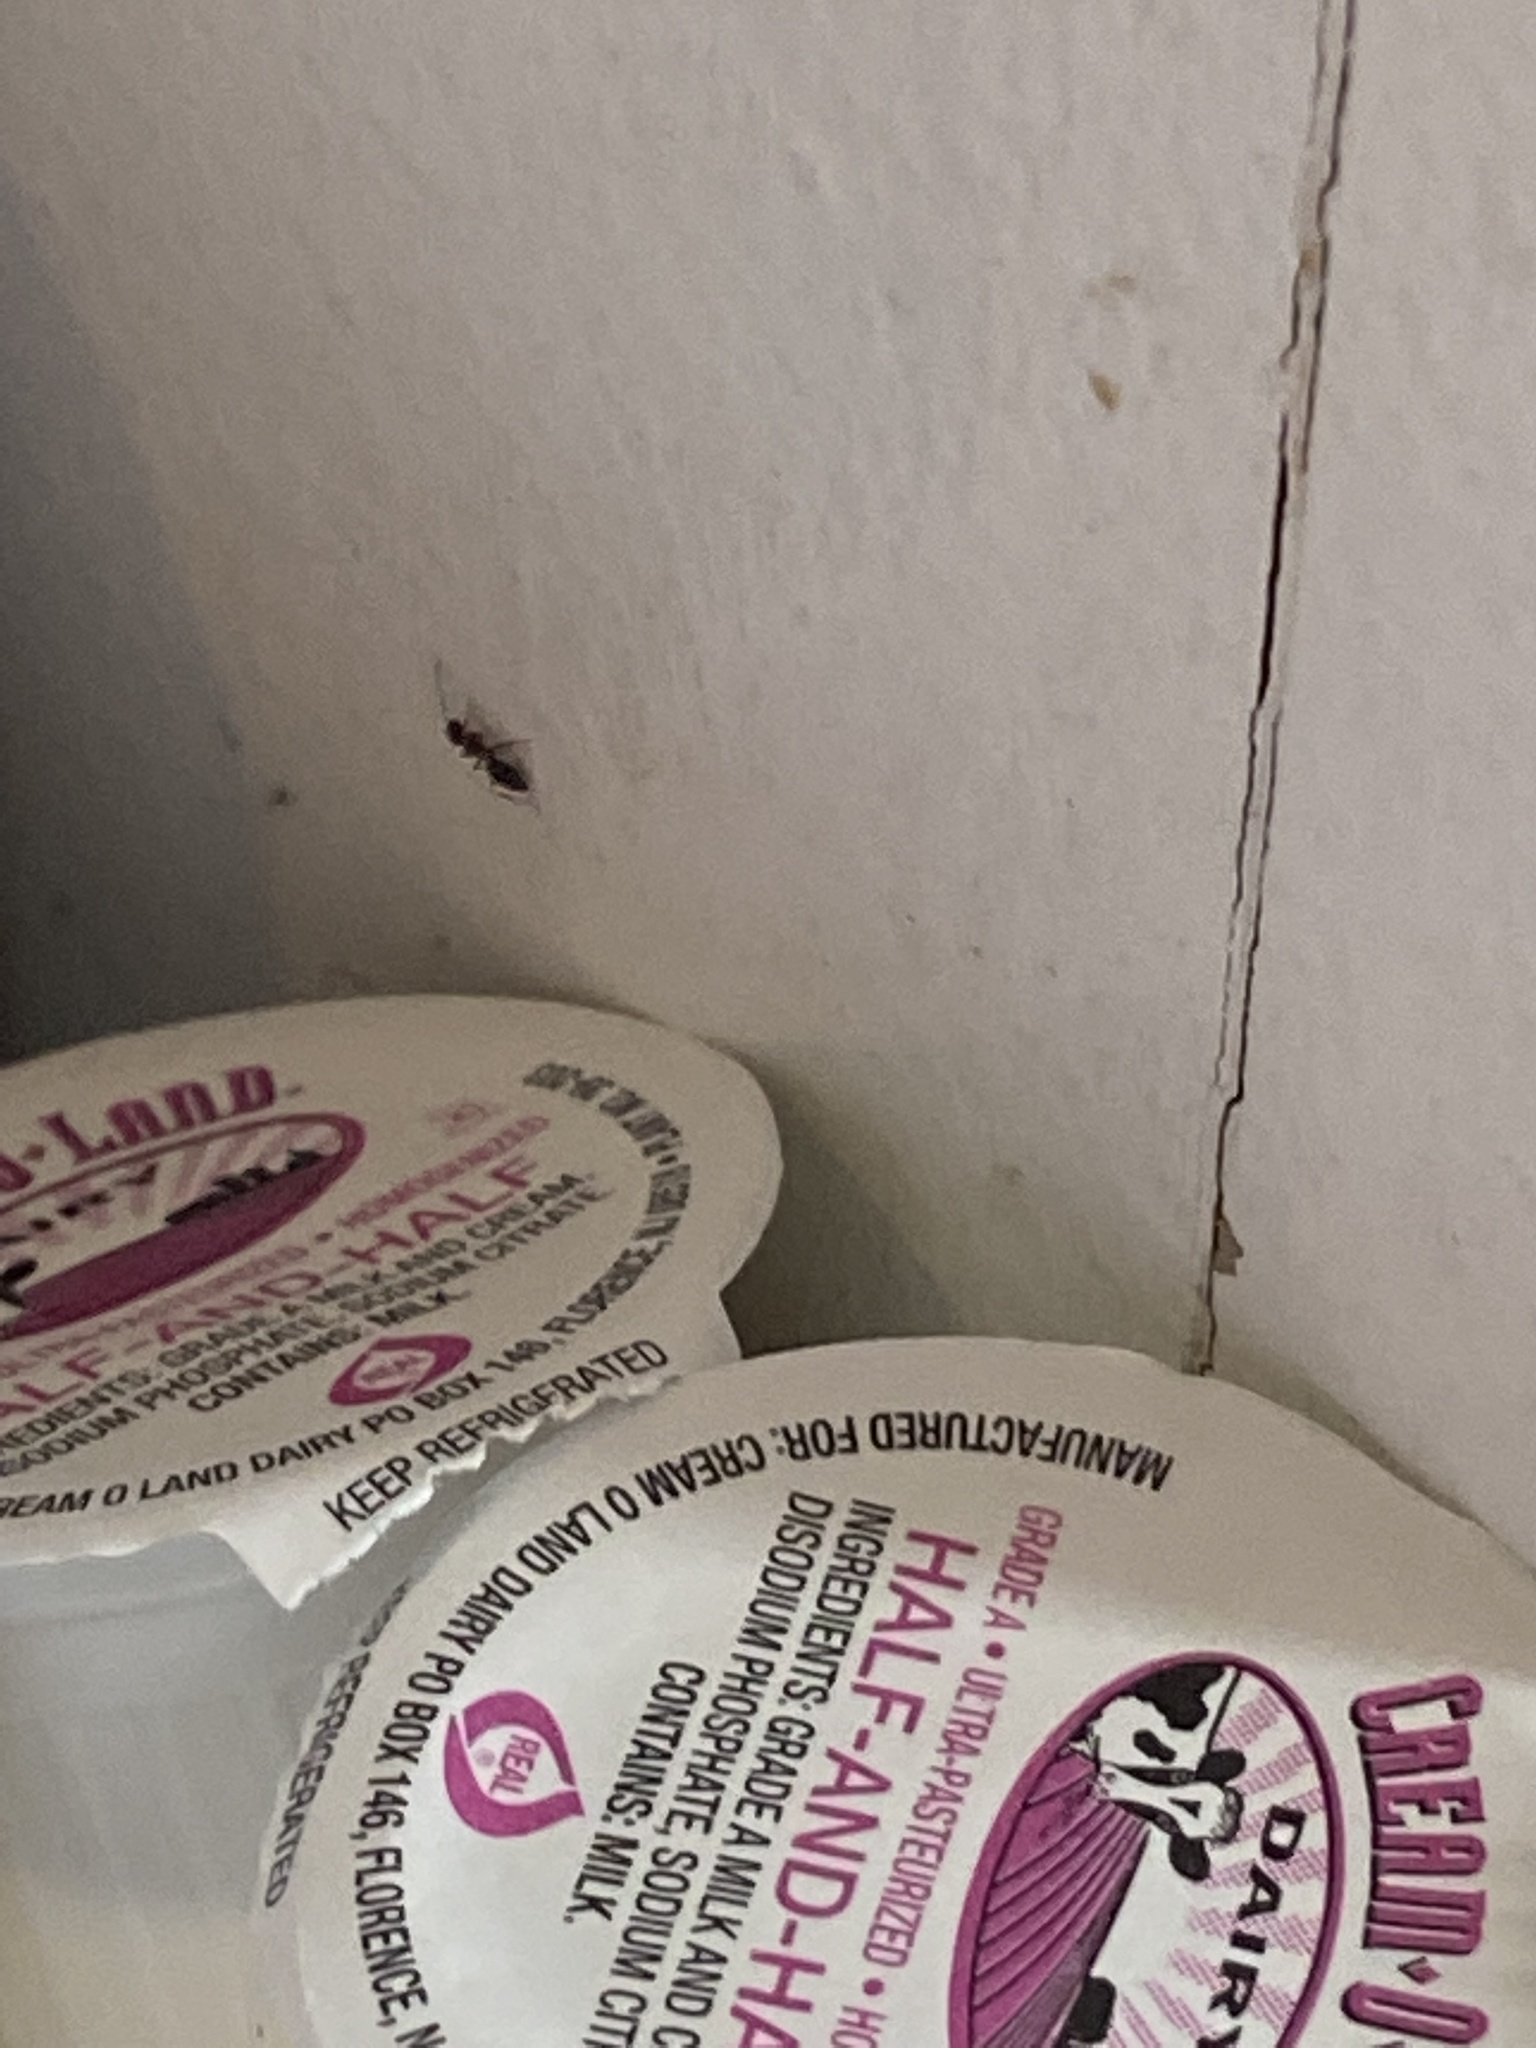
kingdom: Animalia
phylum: Arthropoda
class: Insecta
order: Hymenoptera
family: Formicidae
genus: Tapinoma
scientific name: Tapinoma sessile
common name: Odorous house ant
